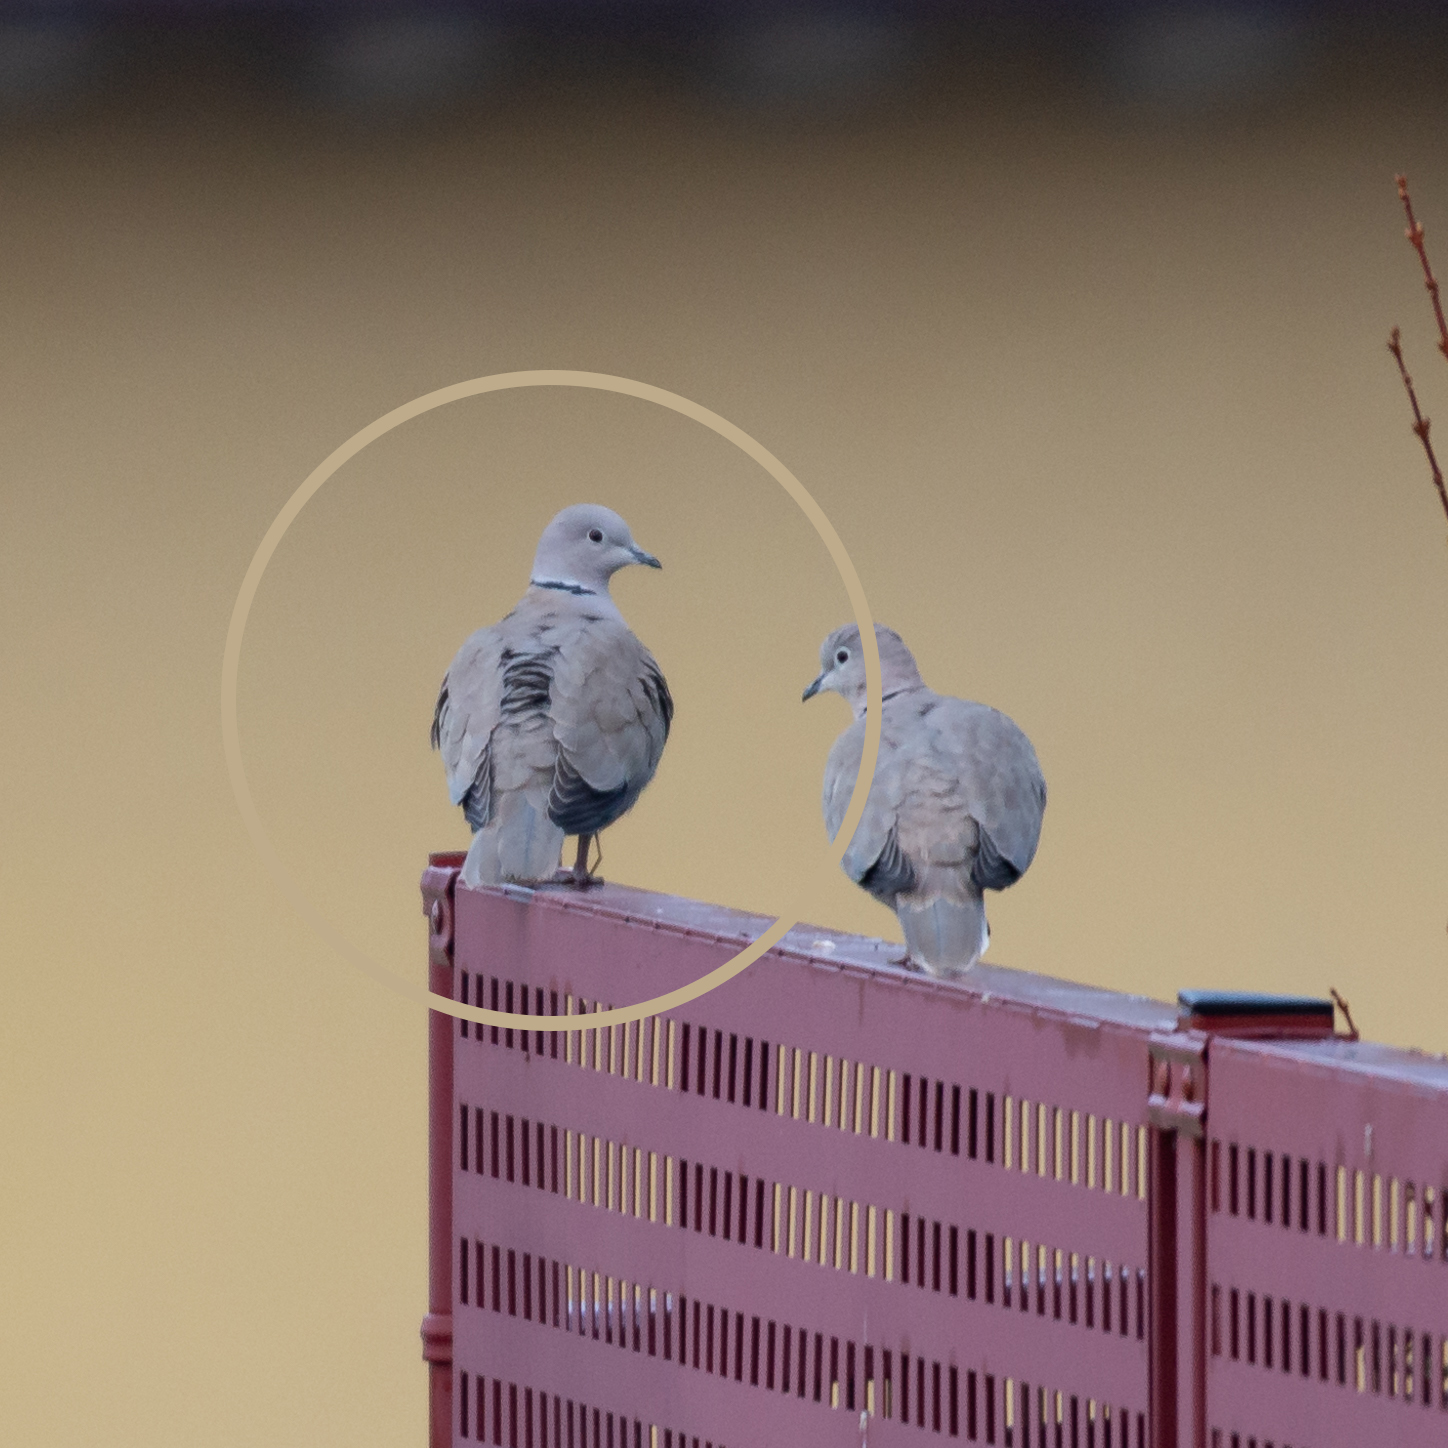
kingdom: Animalia
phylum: Chordata
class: Aves
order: Columbiformes
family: Columbidae
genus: Streptopelia
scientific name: Streptopelia decaocto
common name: Eurasian collared dove
